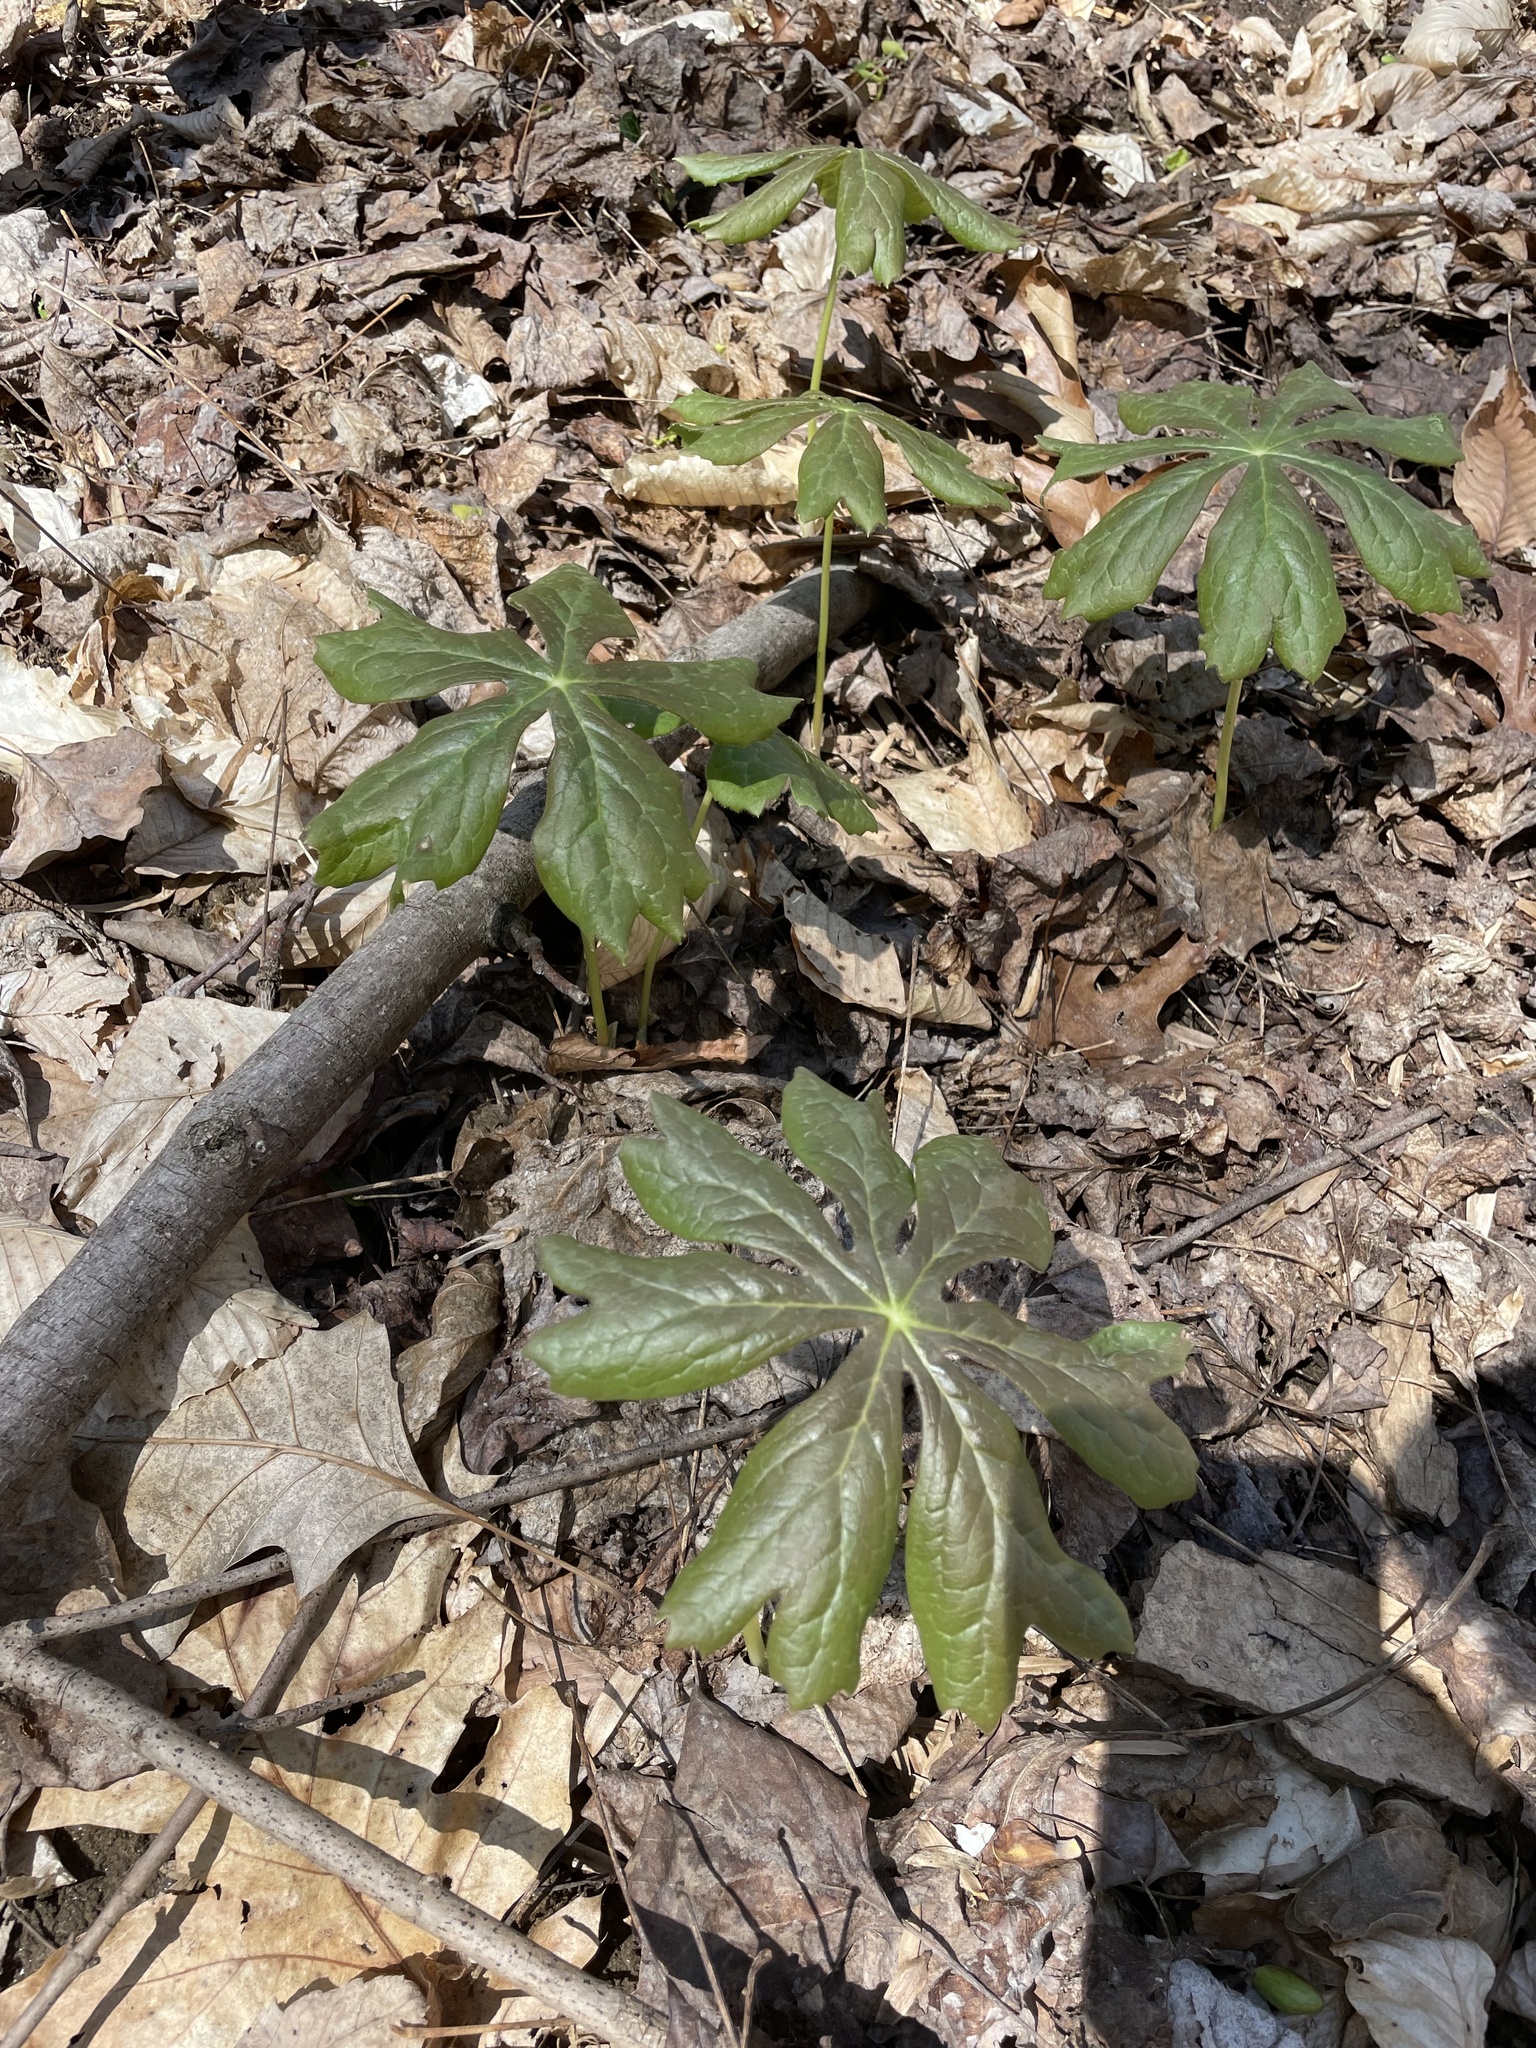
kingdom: Plantae
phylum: Tracheophyta
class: Magnoliopsida
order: Ranunculales
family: Berberidaceae
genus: Podophyllum
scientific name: Podophyllum peltatum
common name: Wild mandrake
